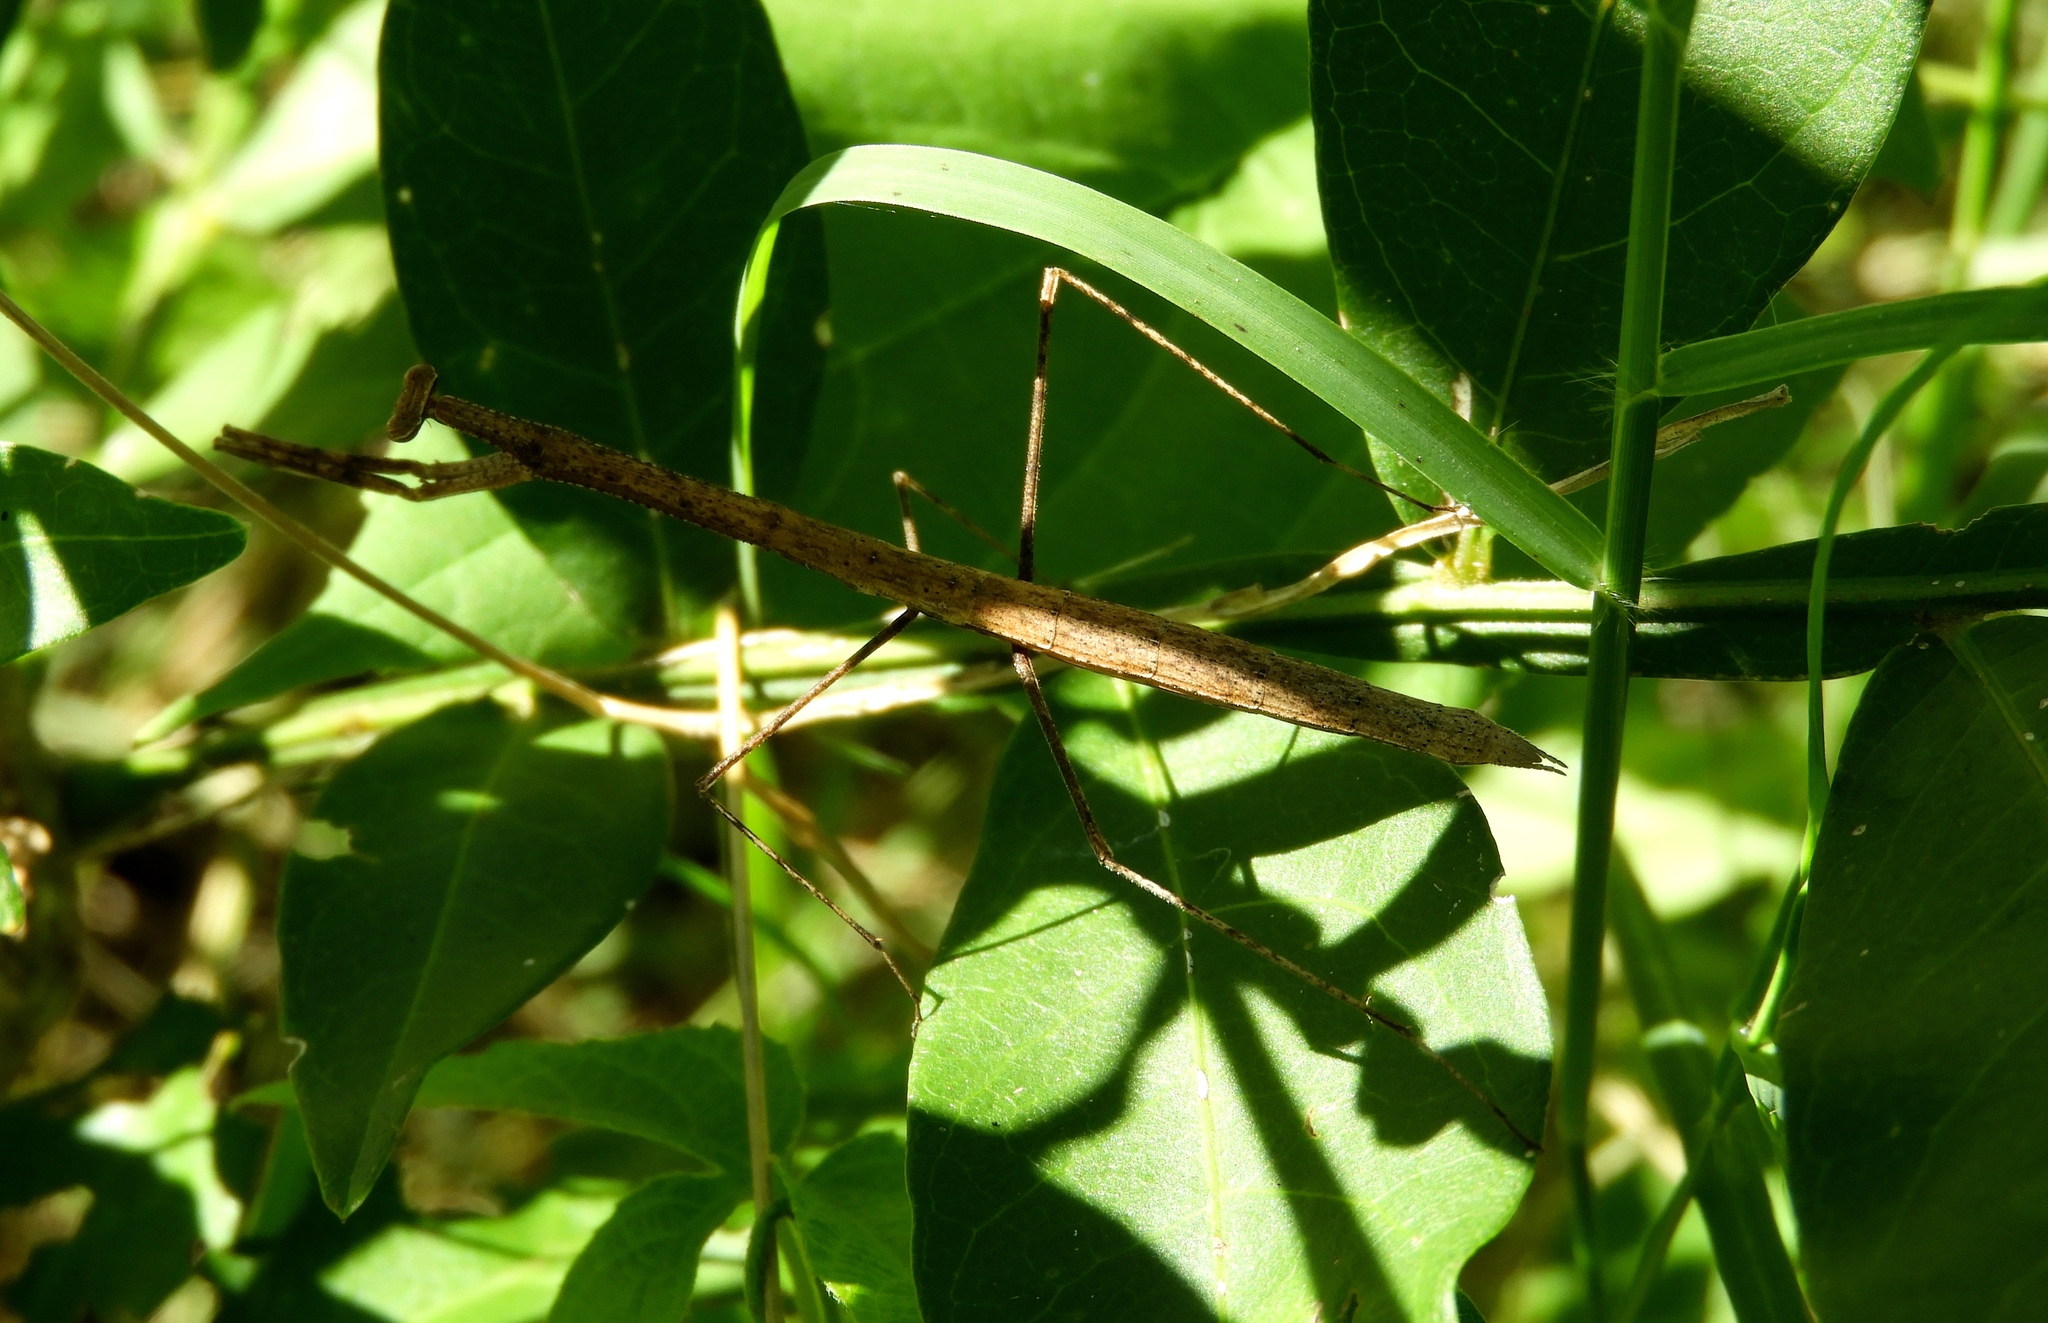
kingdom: Animalia
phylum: Arthropoda
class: Insecta
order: Mantodea
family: Thespidae
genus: Bistanta
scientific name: Bistanta mexicana
